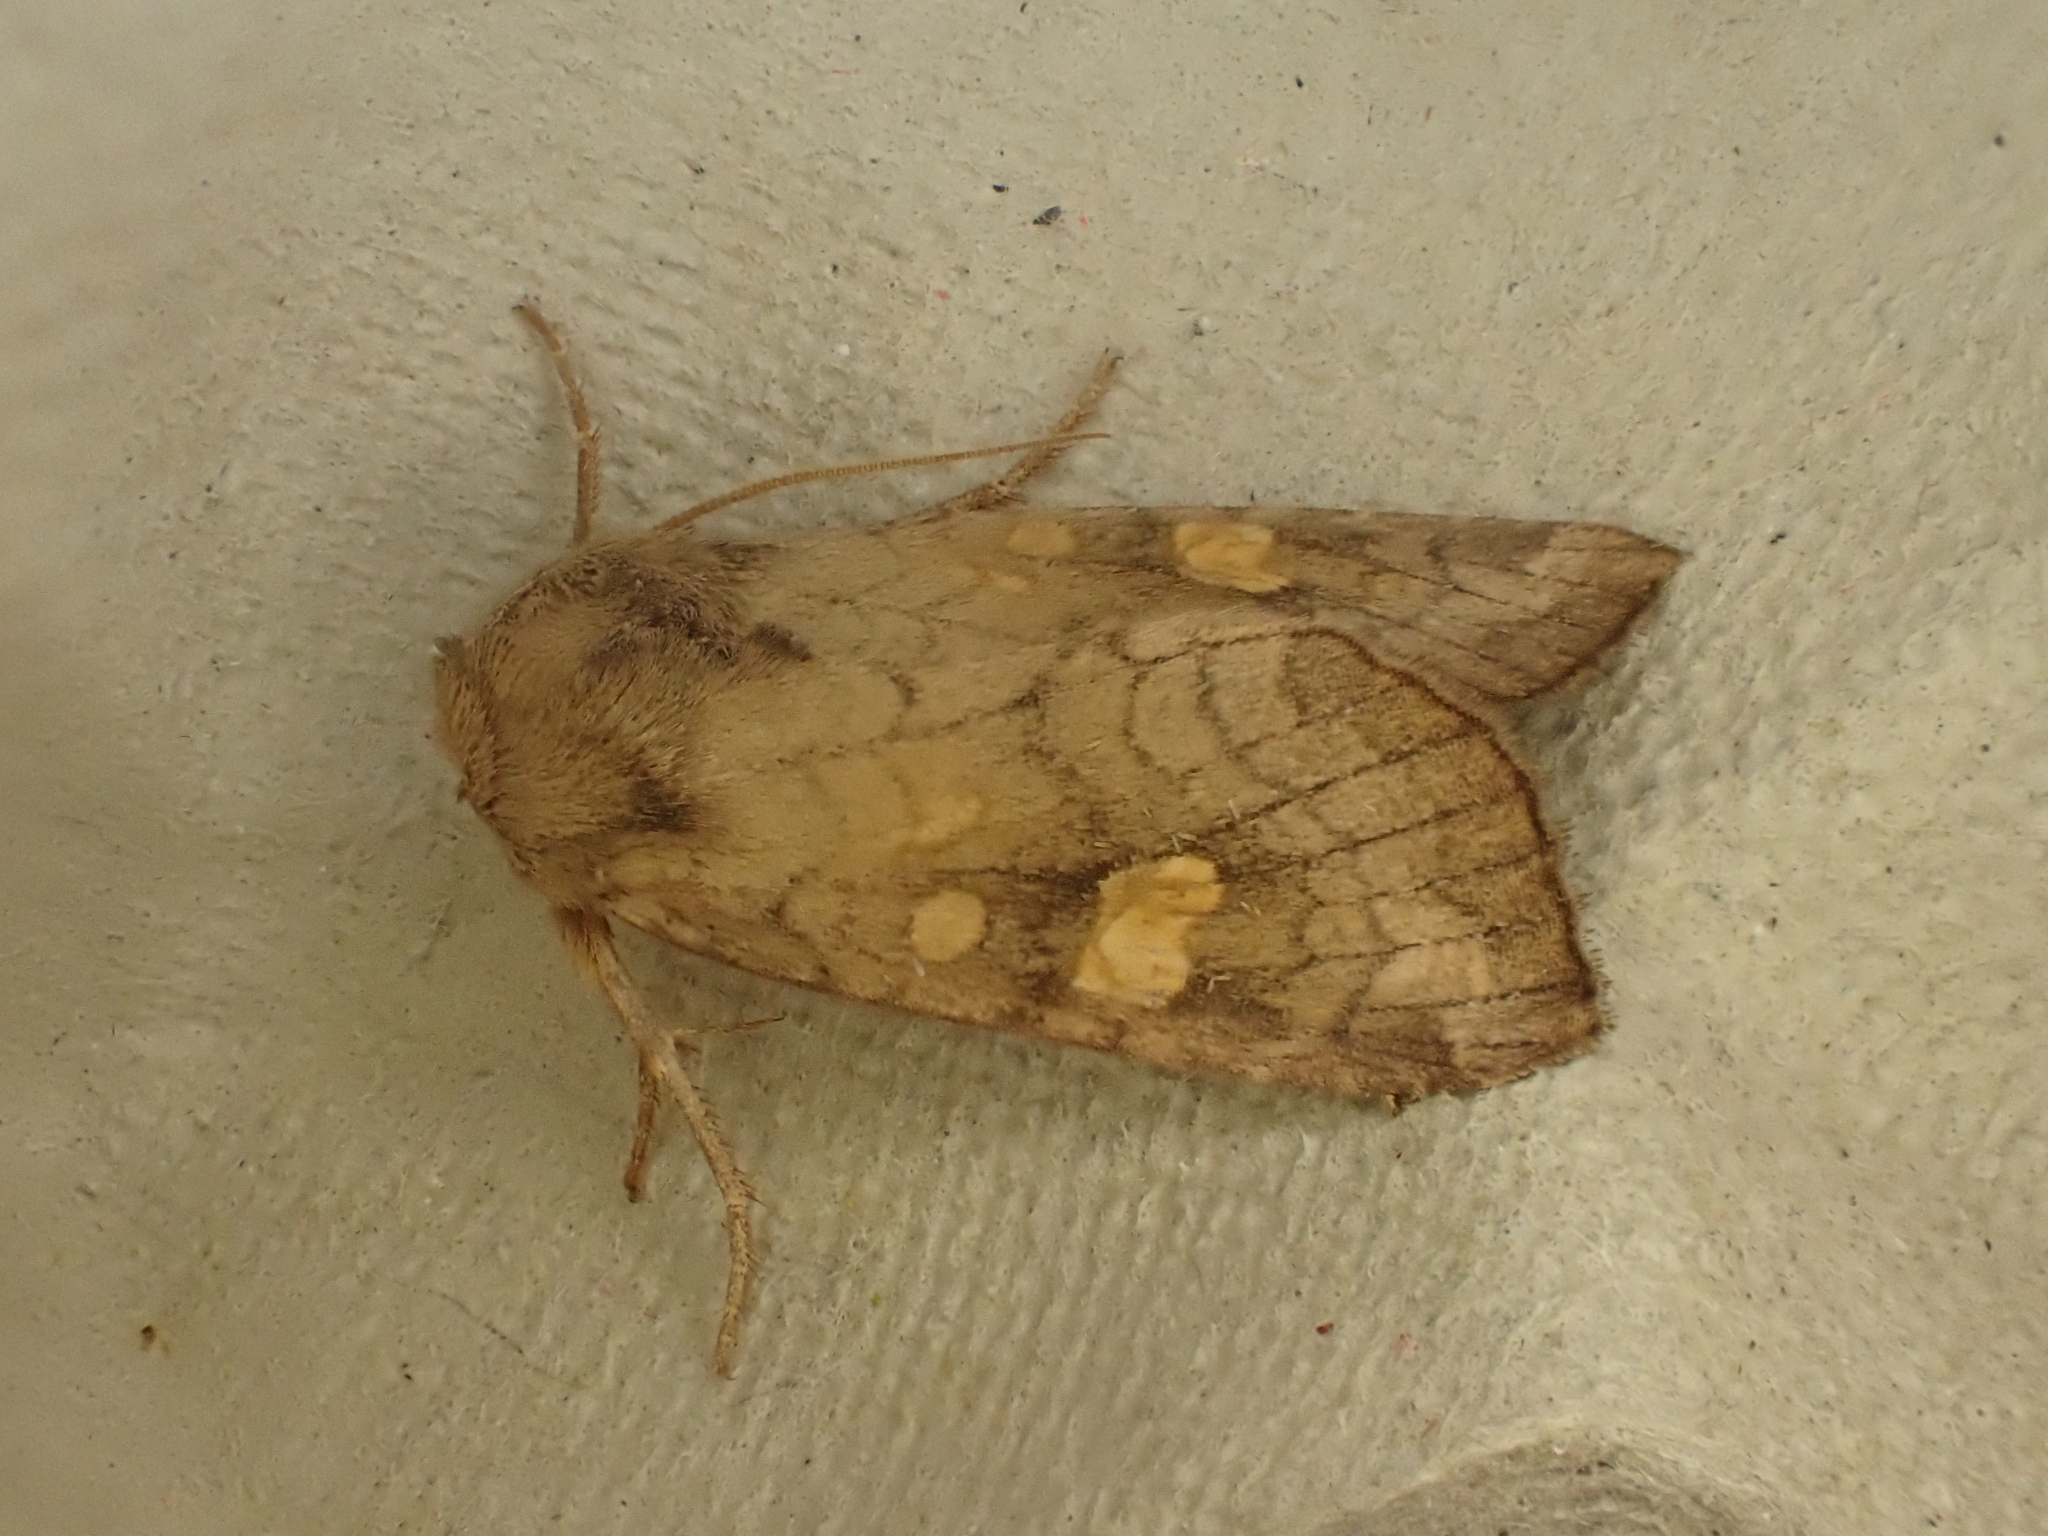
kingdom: Animalia
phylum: Arthropoda
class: Insecta
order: Lepidoptera
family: Noctuidae
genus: Amphipoea
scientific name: Amphipoea crinanensis
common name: Crinan ear
